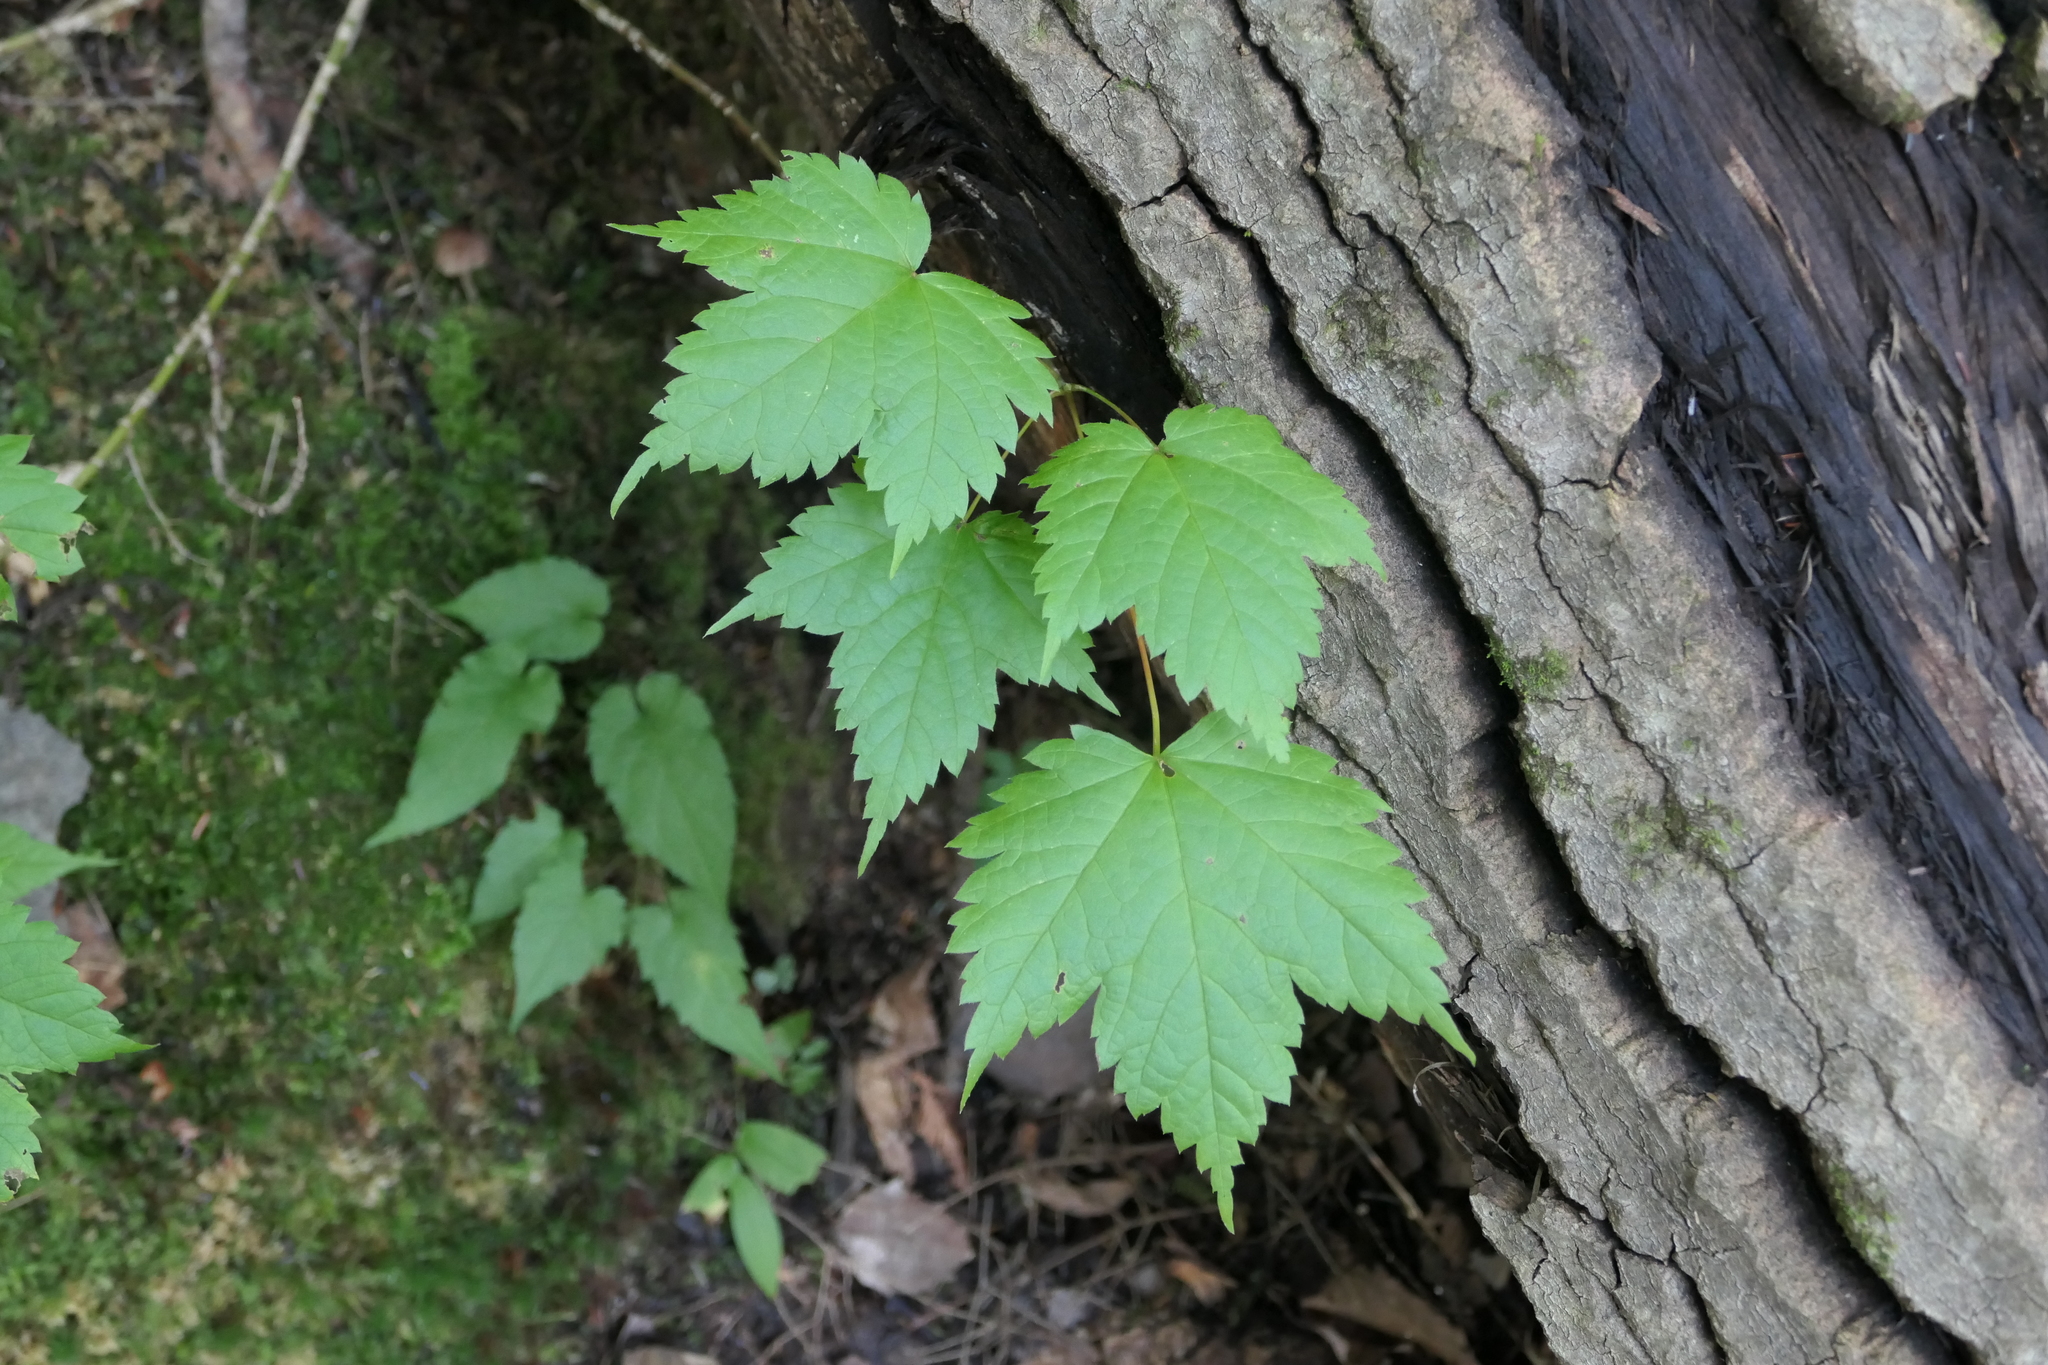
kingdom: Plantae
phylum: Tracheophyta
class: Magnoliopsida
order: Sapindales
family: Sapindaceae
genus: Acer
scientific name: Acer spicatum
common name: Mountain maple
